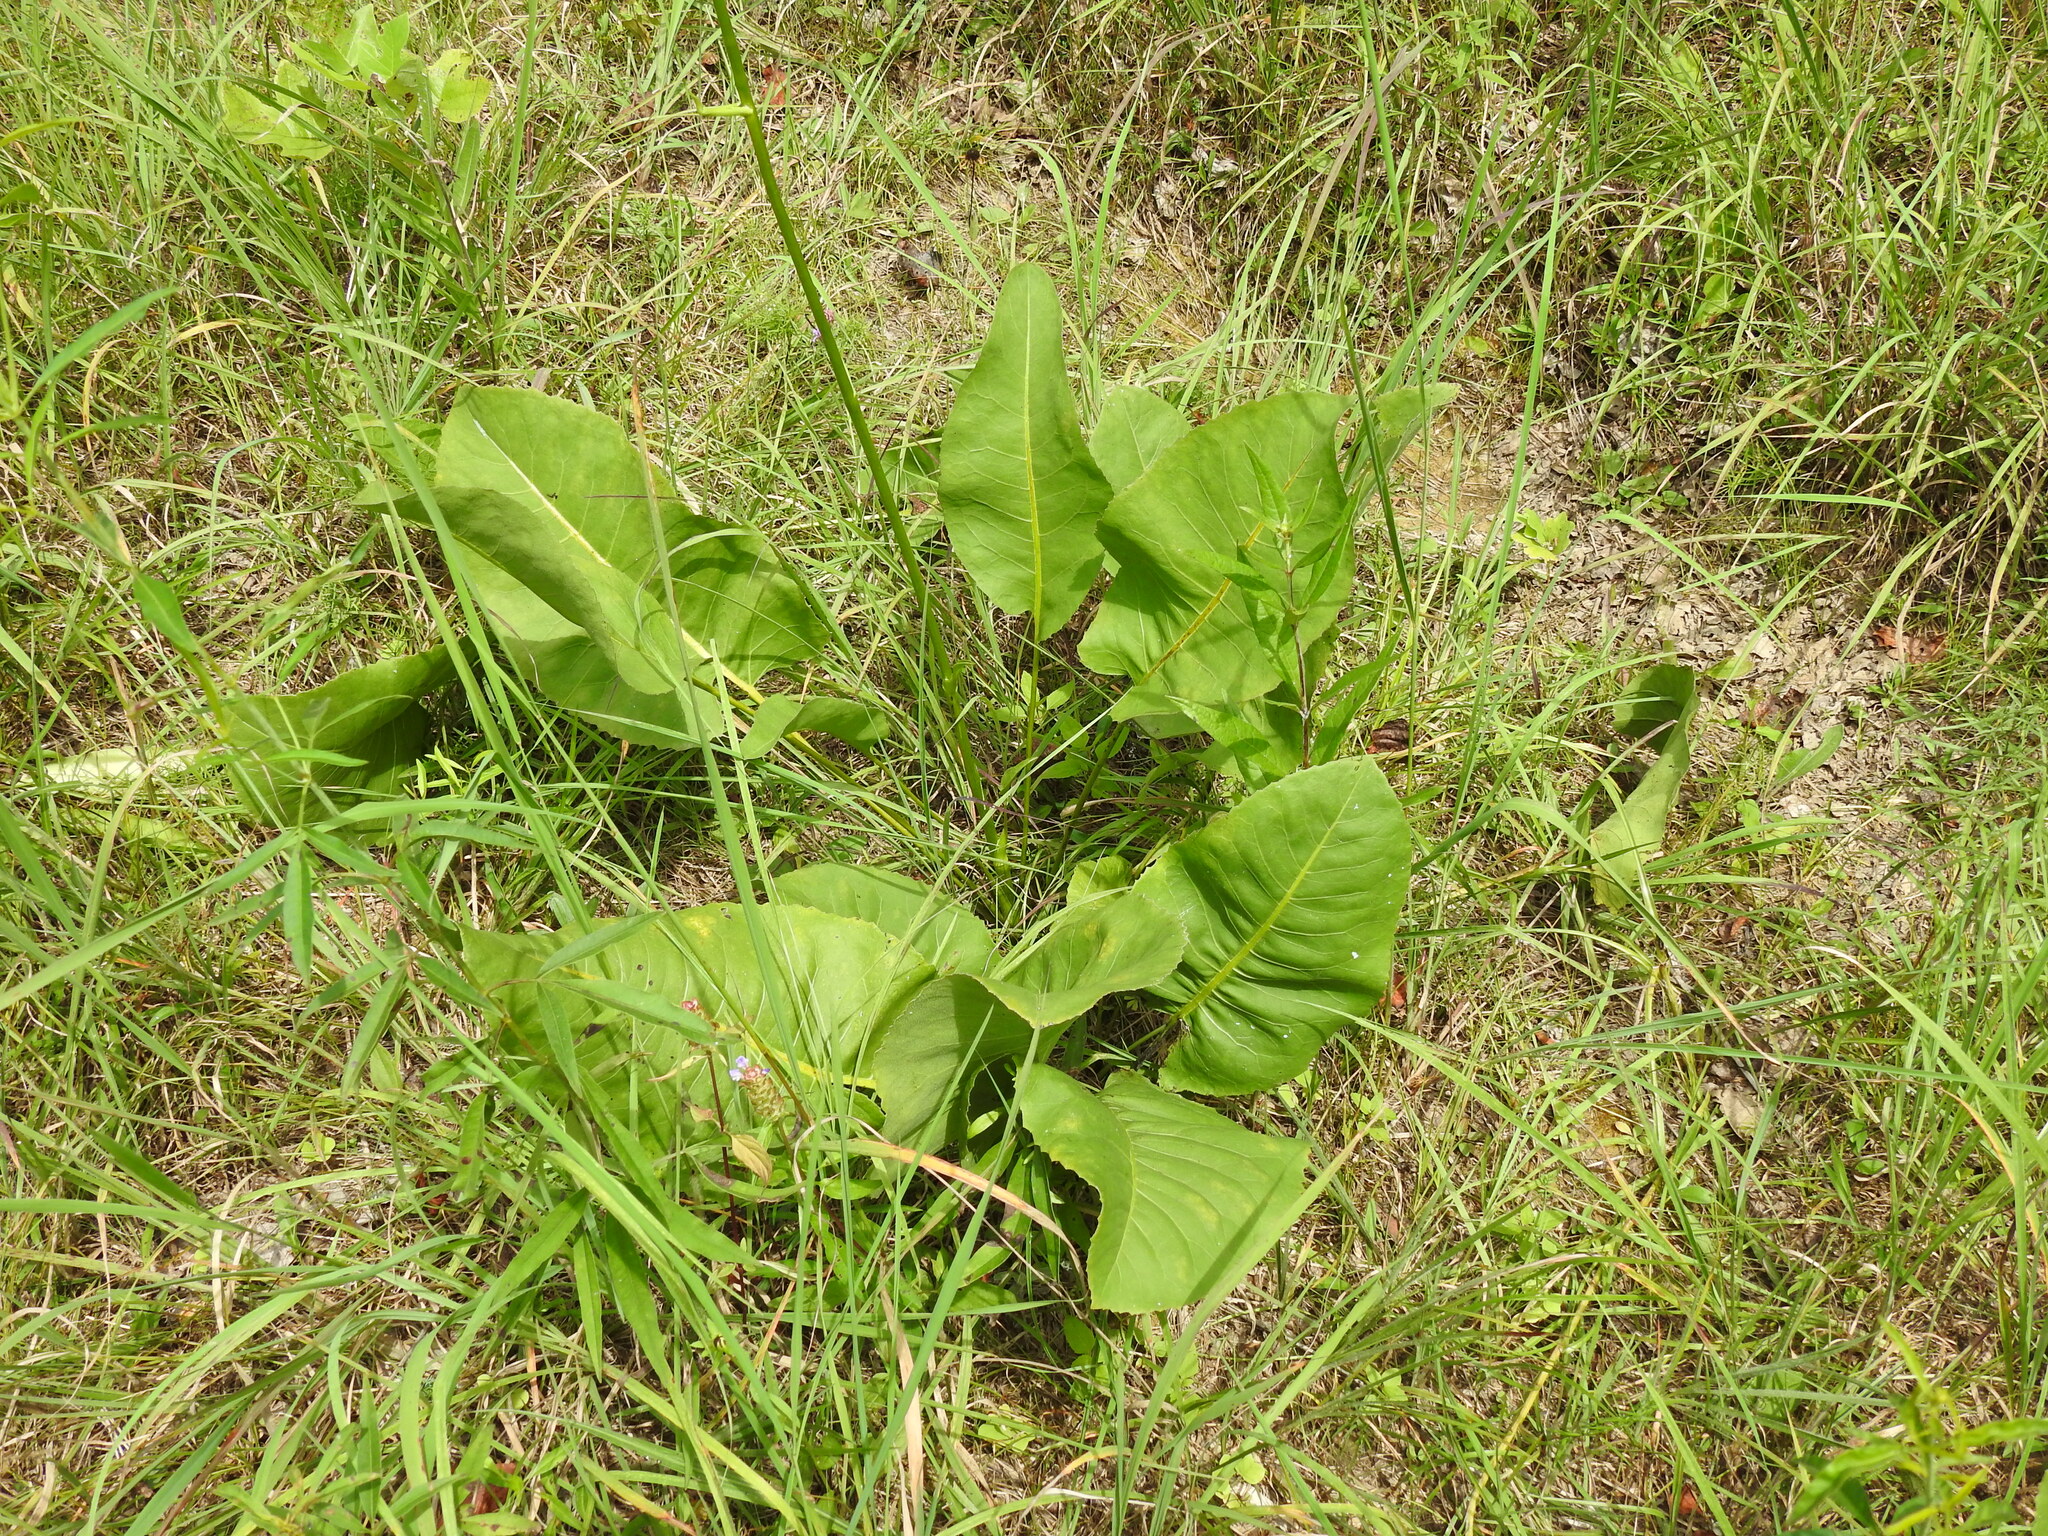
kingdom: Plantae
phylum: Tracheophyta
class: Magnoliopsida
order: Asterales
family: Asteraceae
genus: Silphium
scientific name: Silphium terebinthinaceum
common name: Basal-leaf rosinweed
